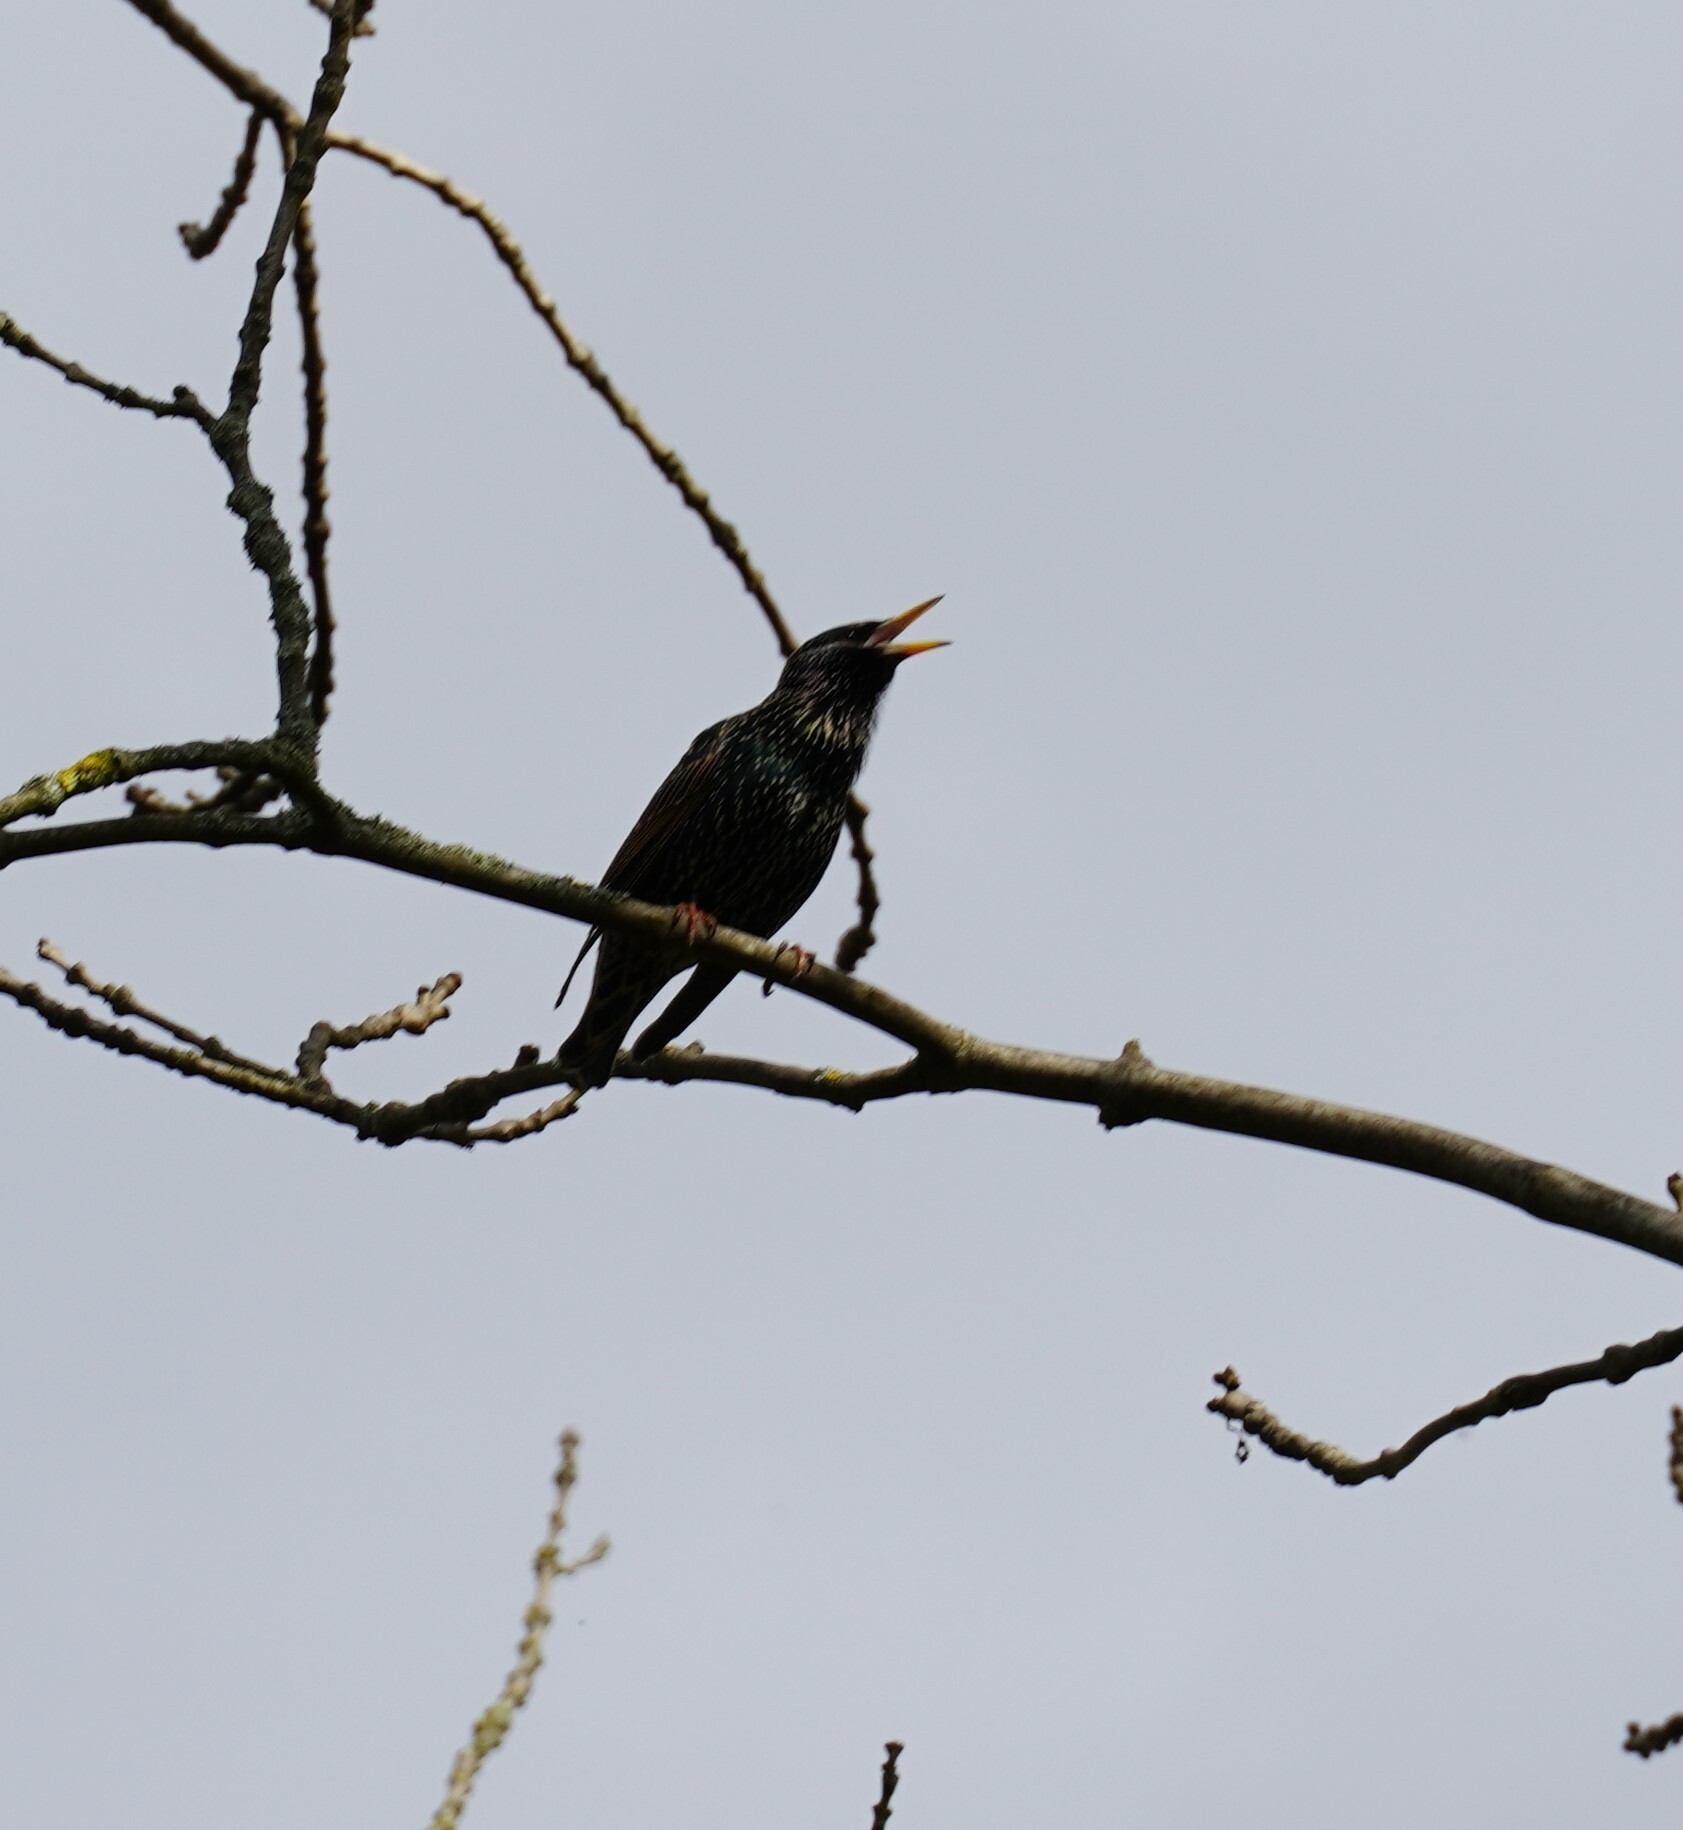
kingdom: Animalia
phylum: Chordata
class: Aves
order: Passeriformes
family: Sturnidae
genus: Sturnus
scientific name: Sturnus vulgaris
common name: Common starling
